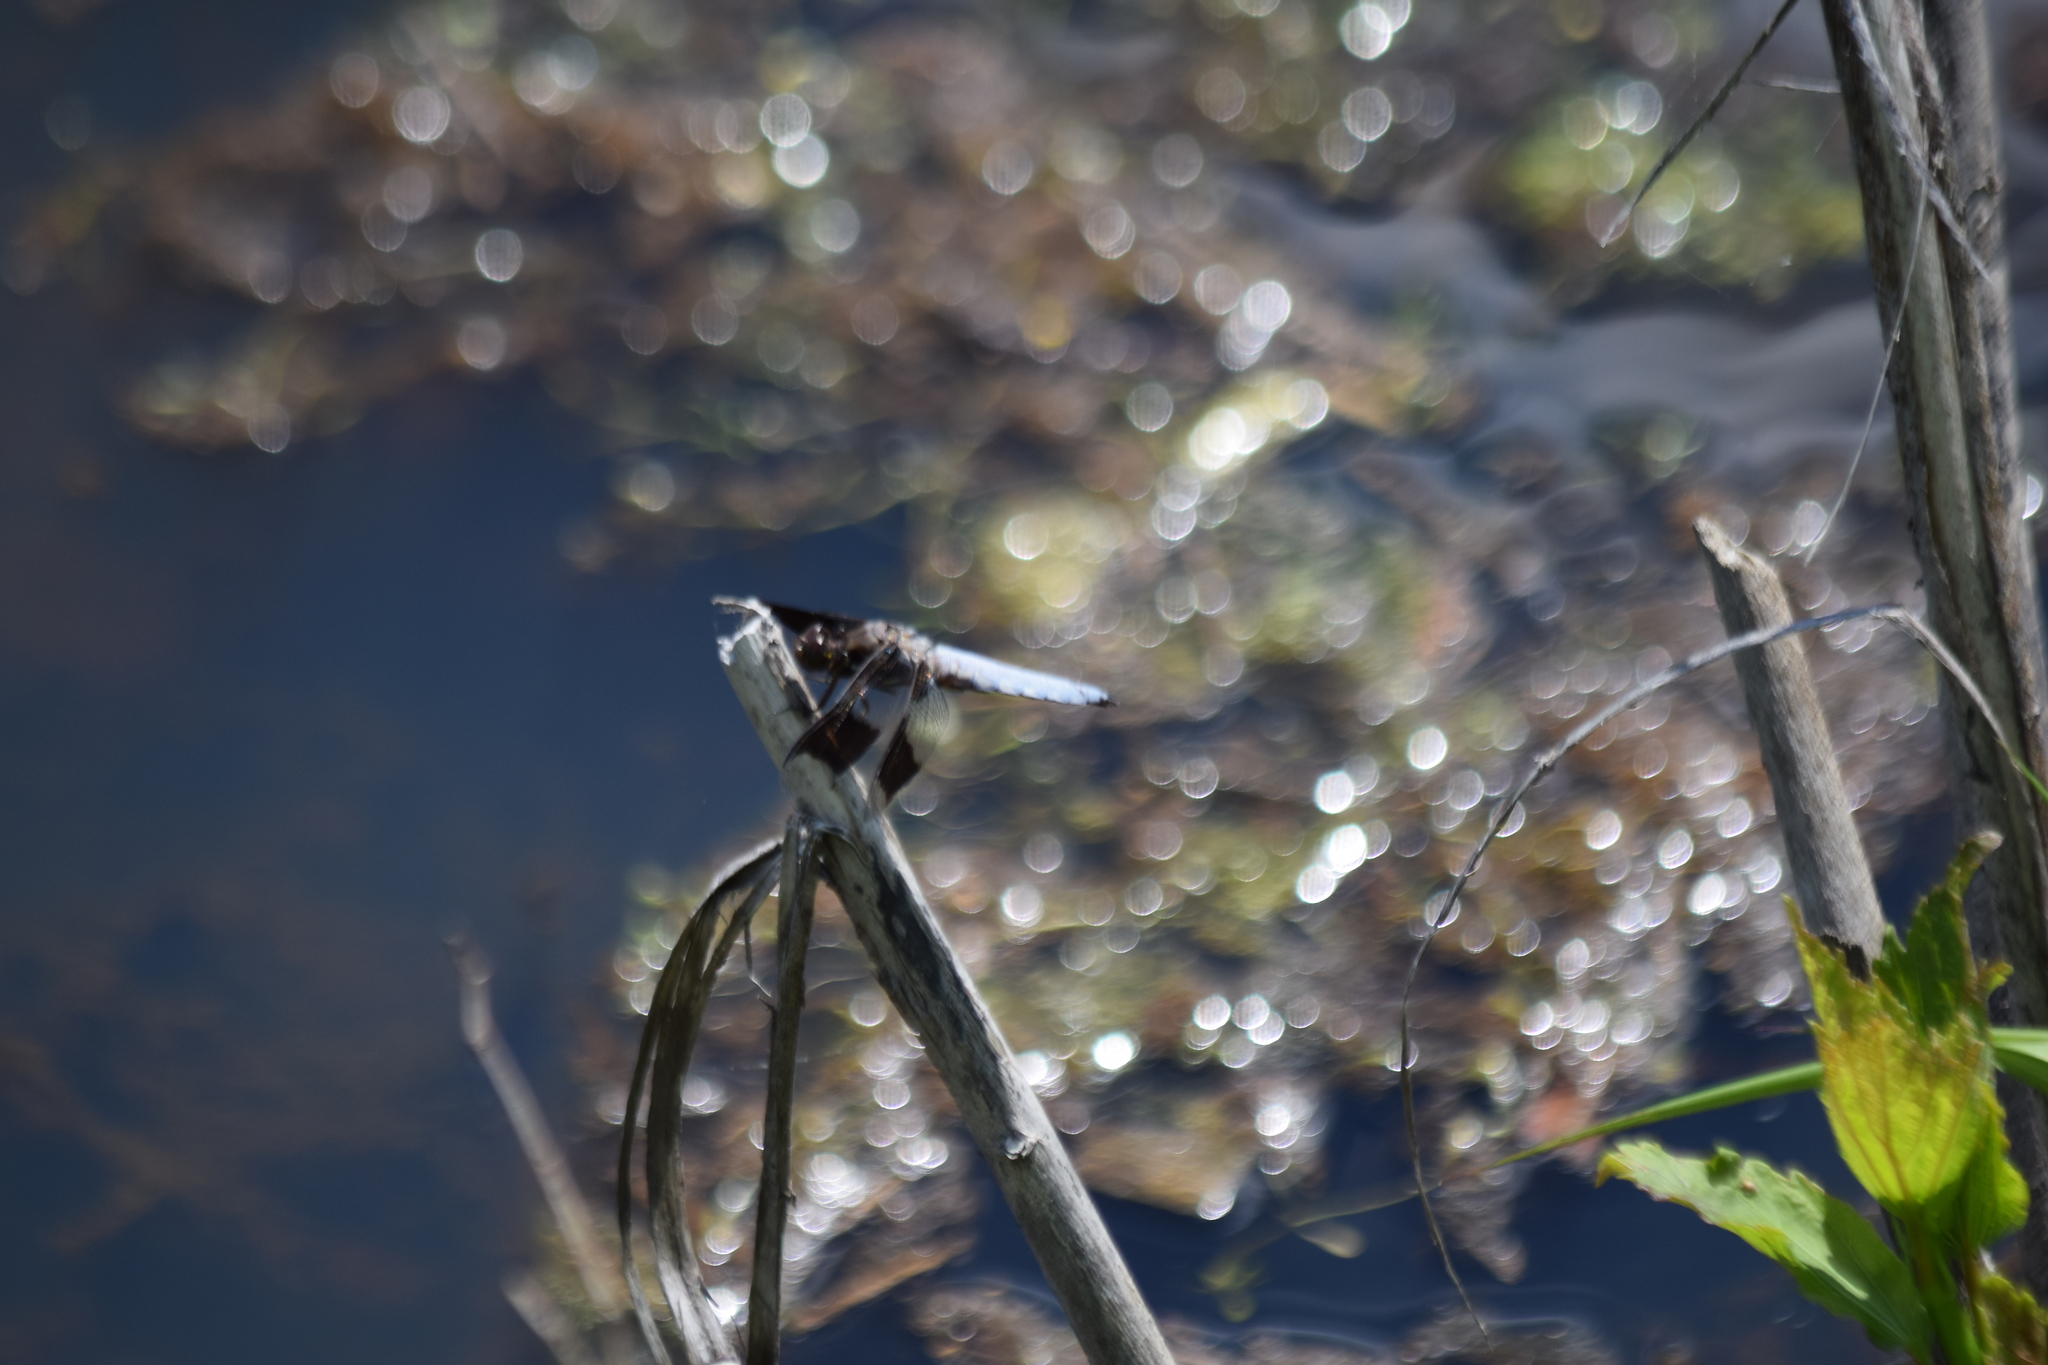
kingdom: Animalia
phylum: Arthropoda
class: Insecta
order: Odonata
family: Libellulidae
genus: Plathemis
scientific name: Plathemis lydia
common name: Common whitetail
